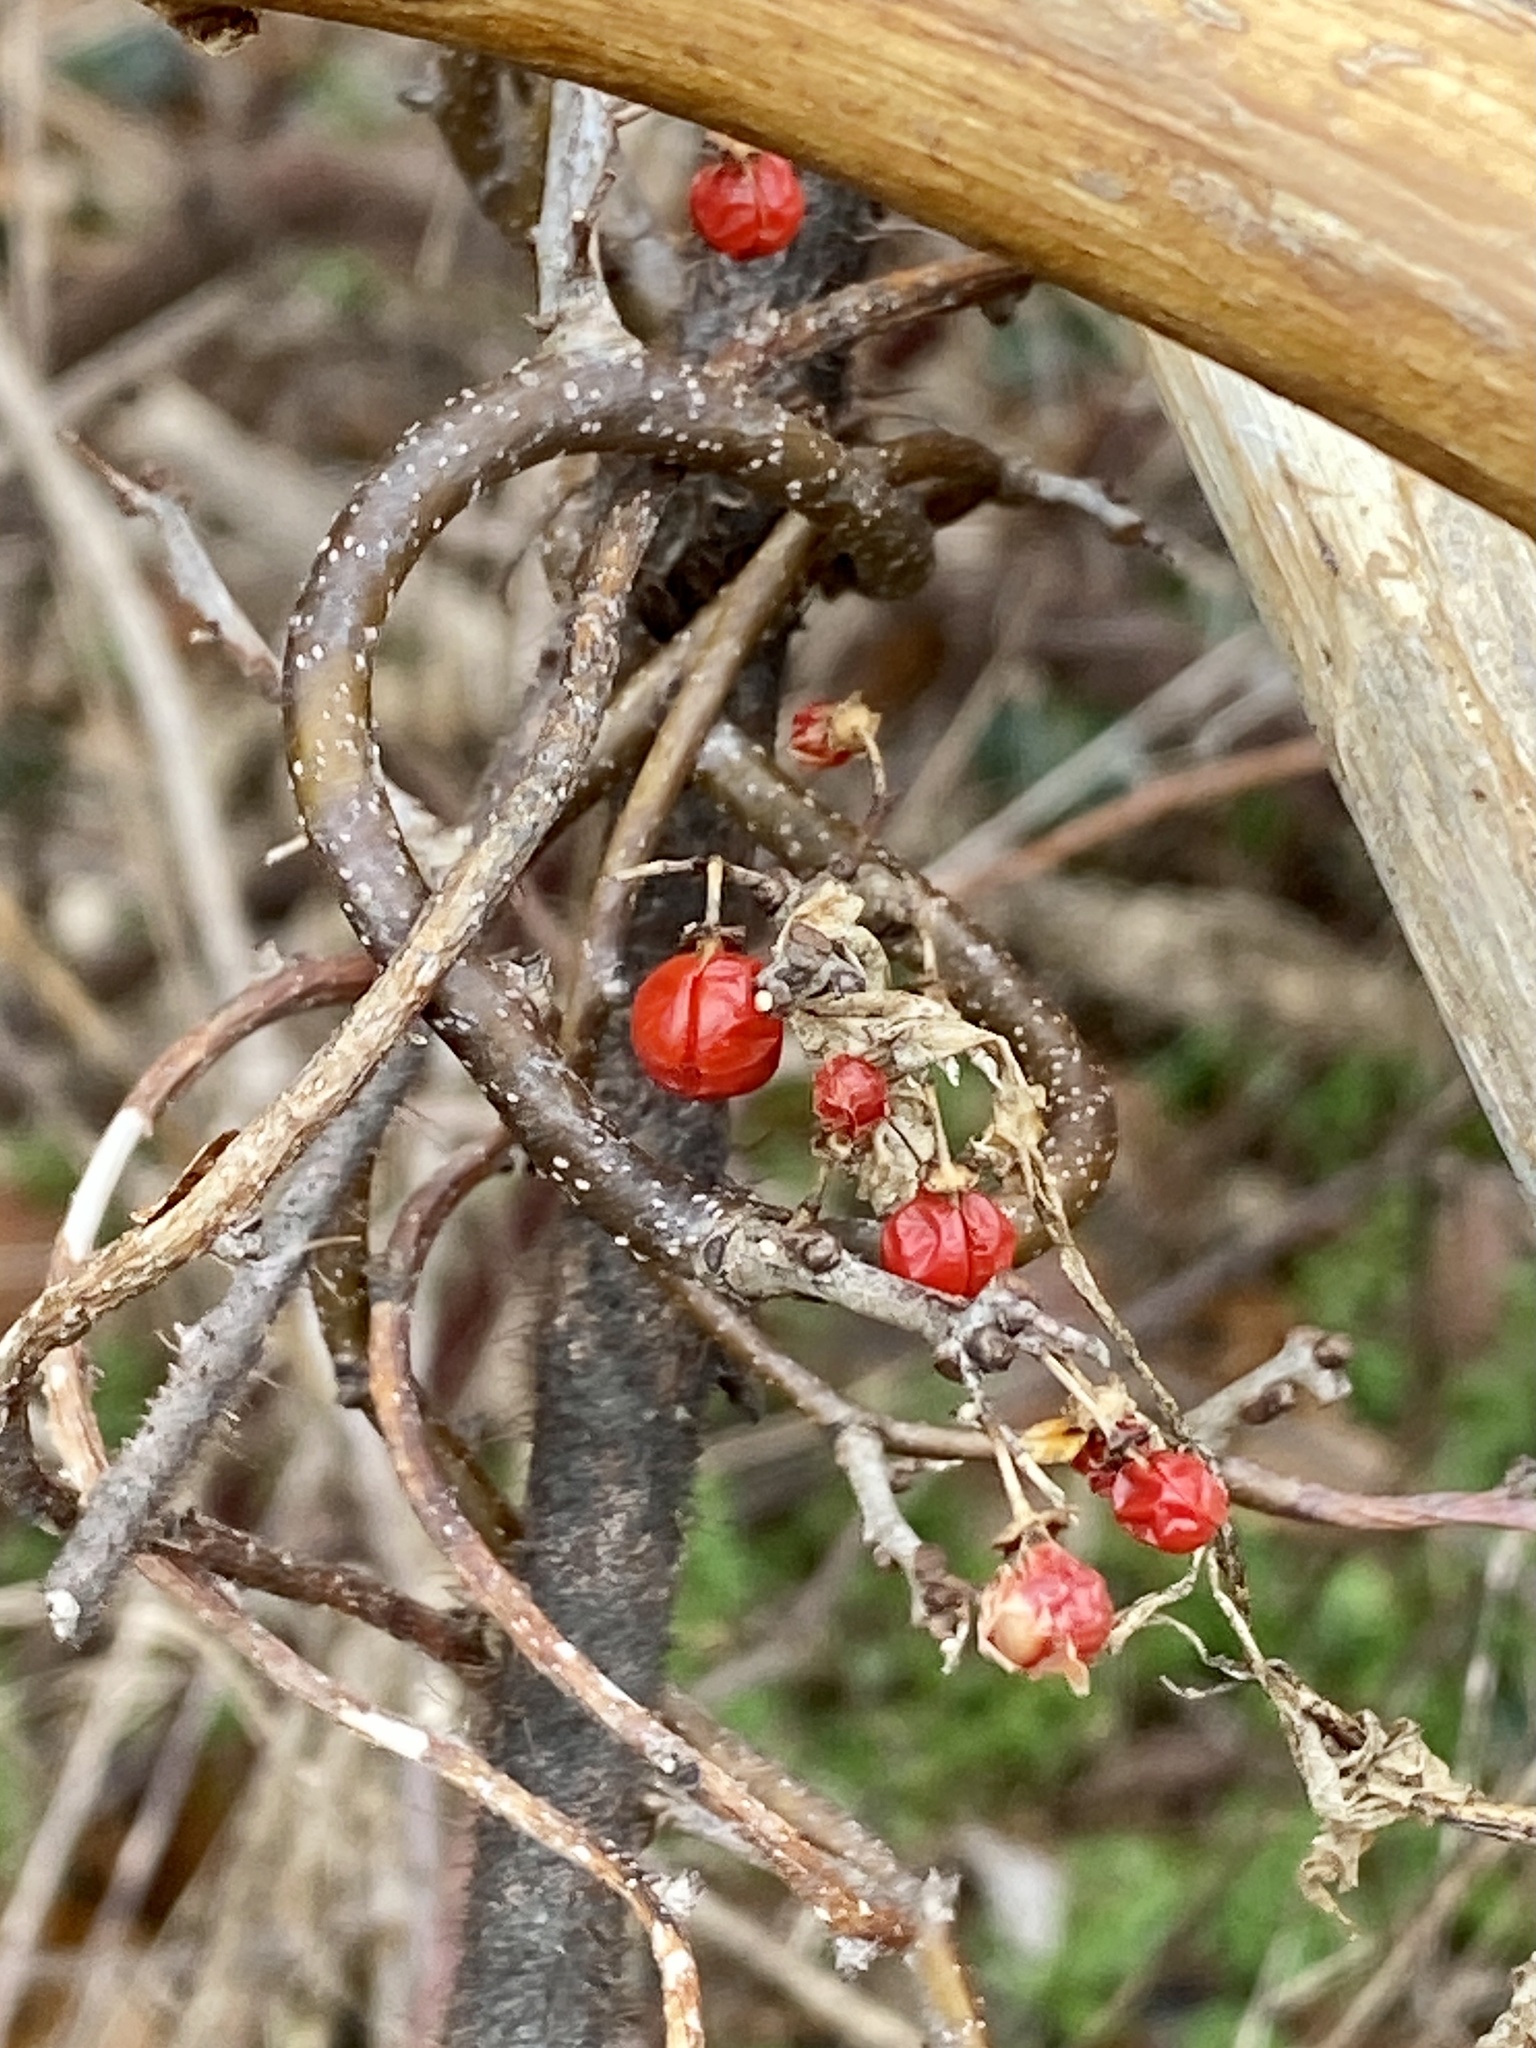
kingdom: Plantae
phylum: Tracheophyta
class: Magnoliopsida
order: Celastrales
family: Celastraceae
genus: Celastrus
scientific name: Celastrus orbiculatus
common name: Oriental bittersweet
